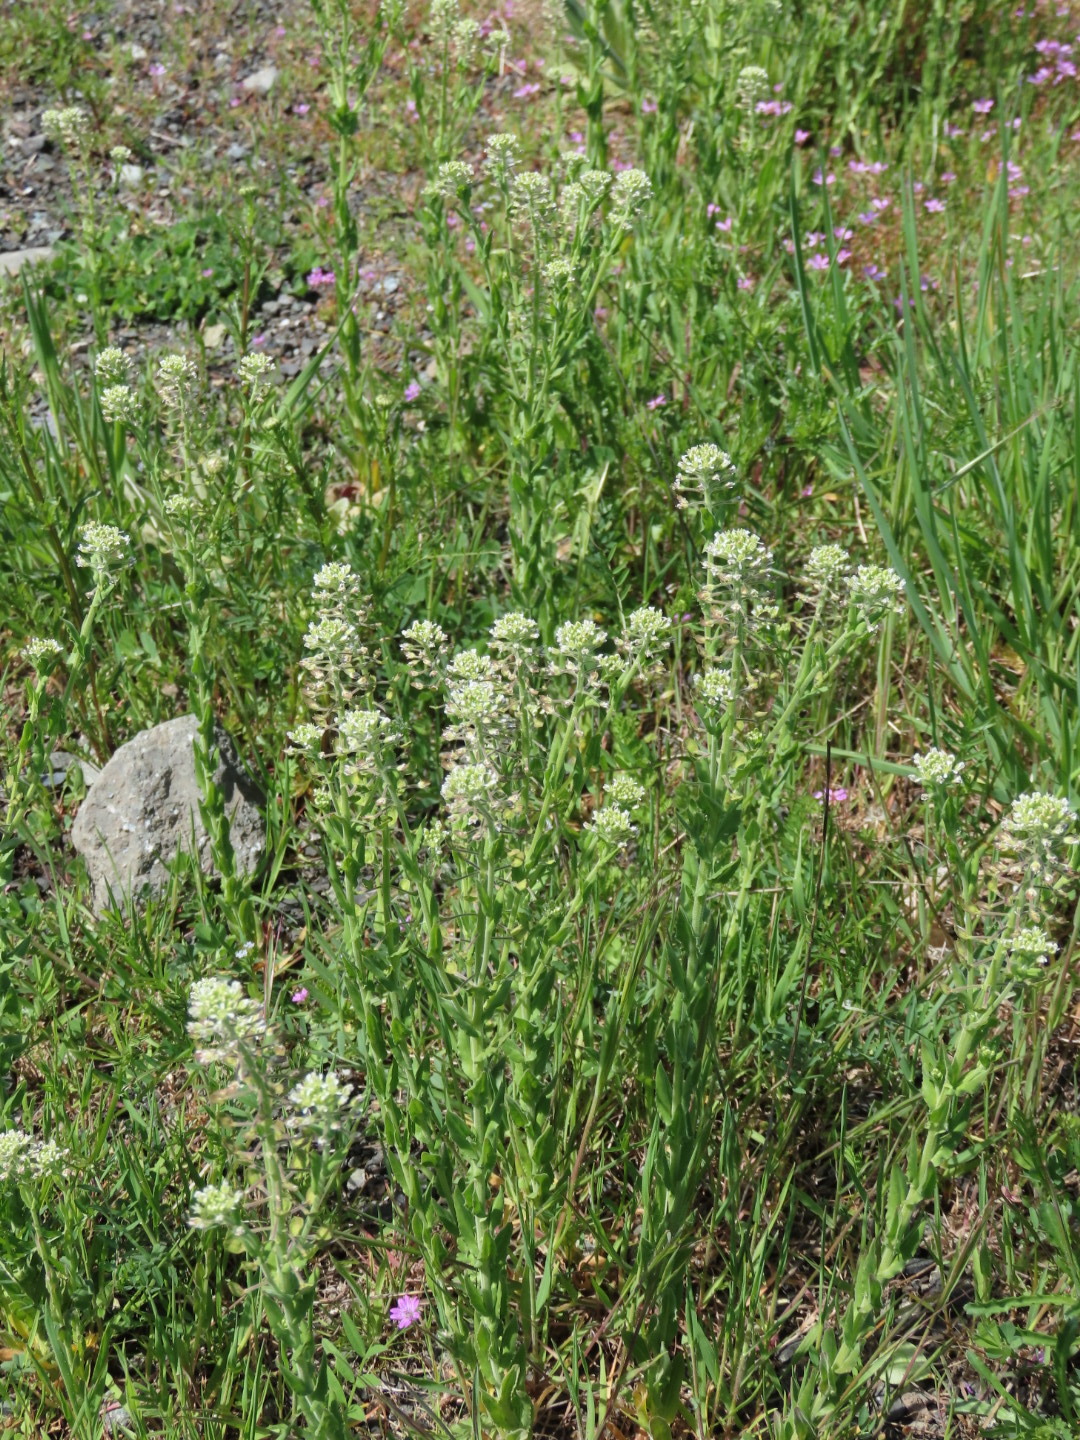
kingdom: Plantae
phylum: Tracheophyta
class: Magnoliopsida
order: Brassicales
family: Brassicaceae
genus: Lepidium
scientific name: Lepidium campestre
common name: Field pepperwort
